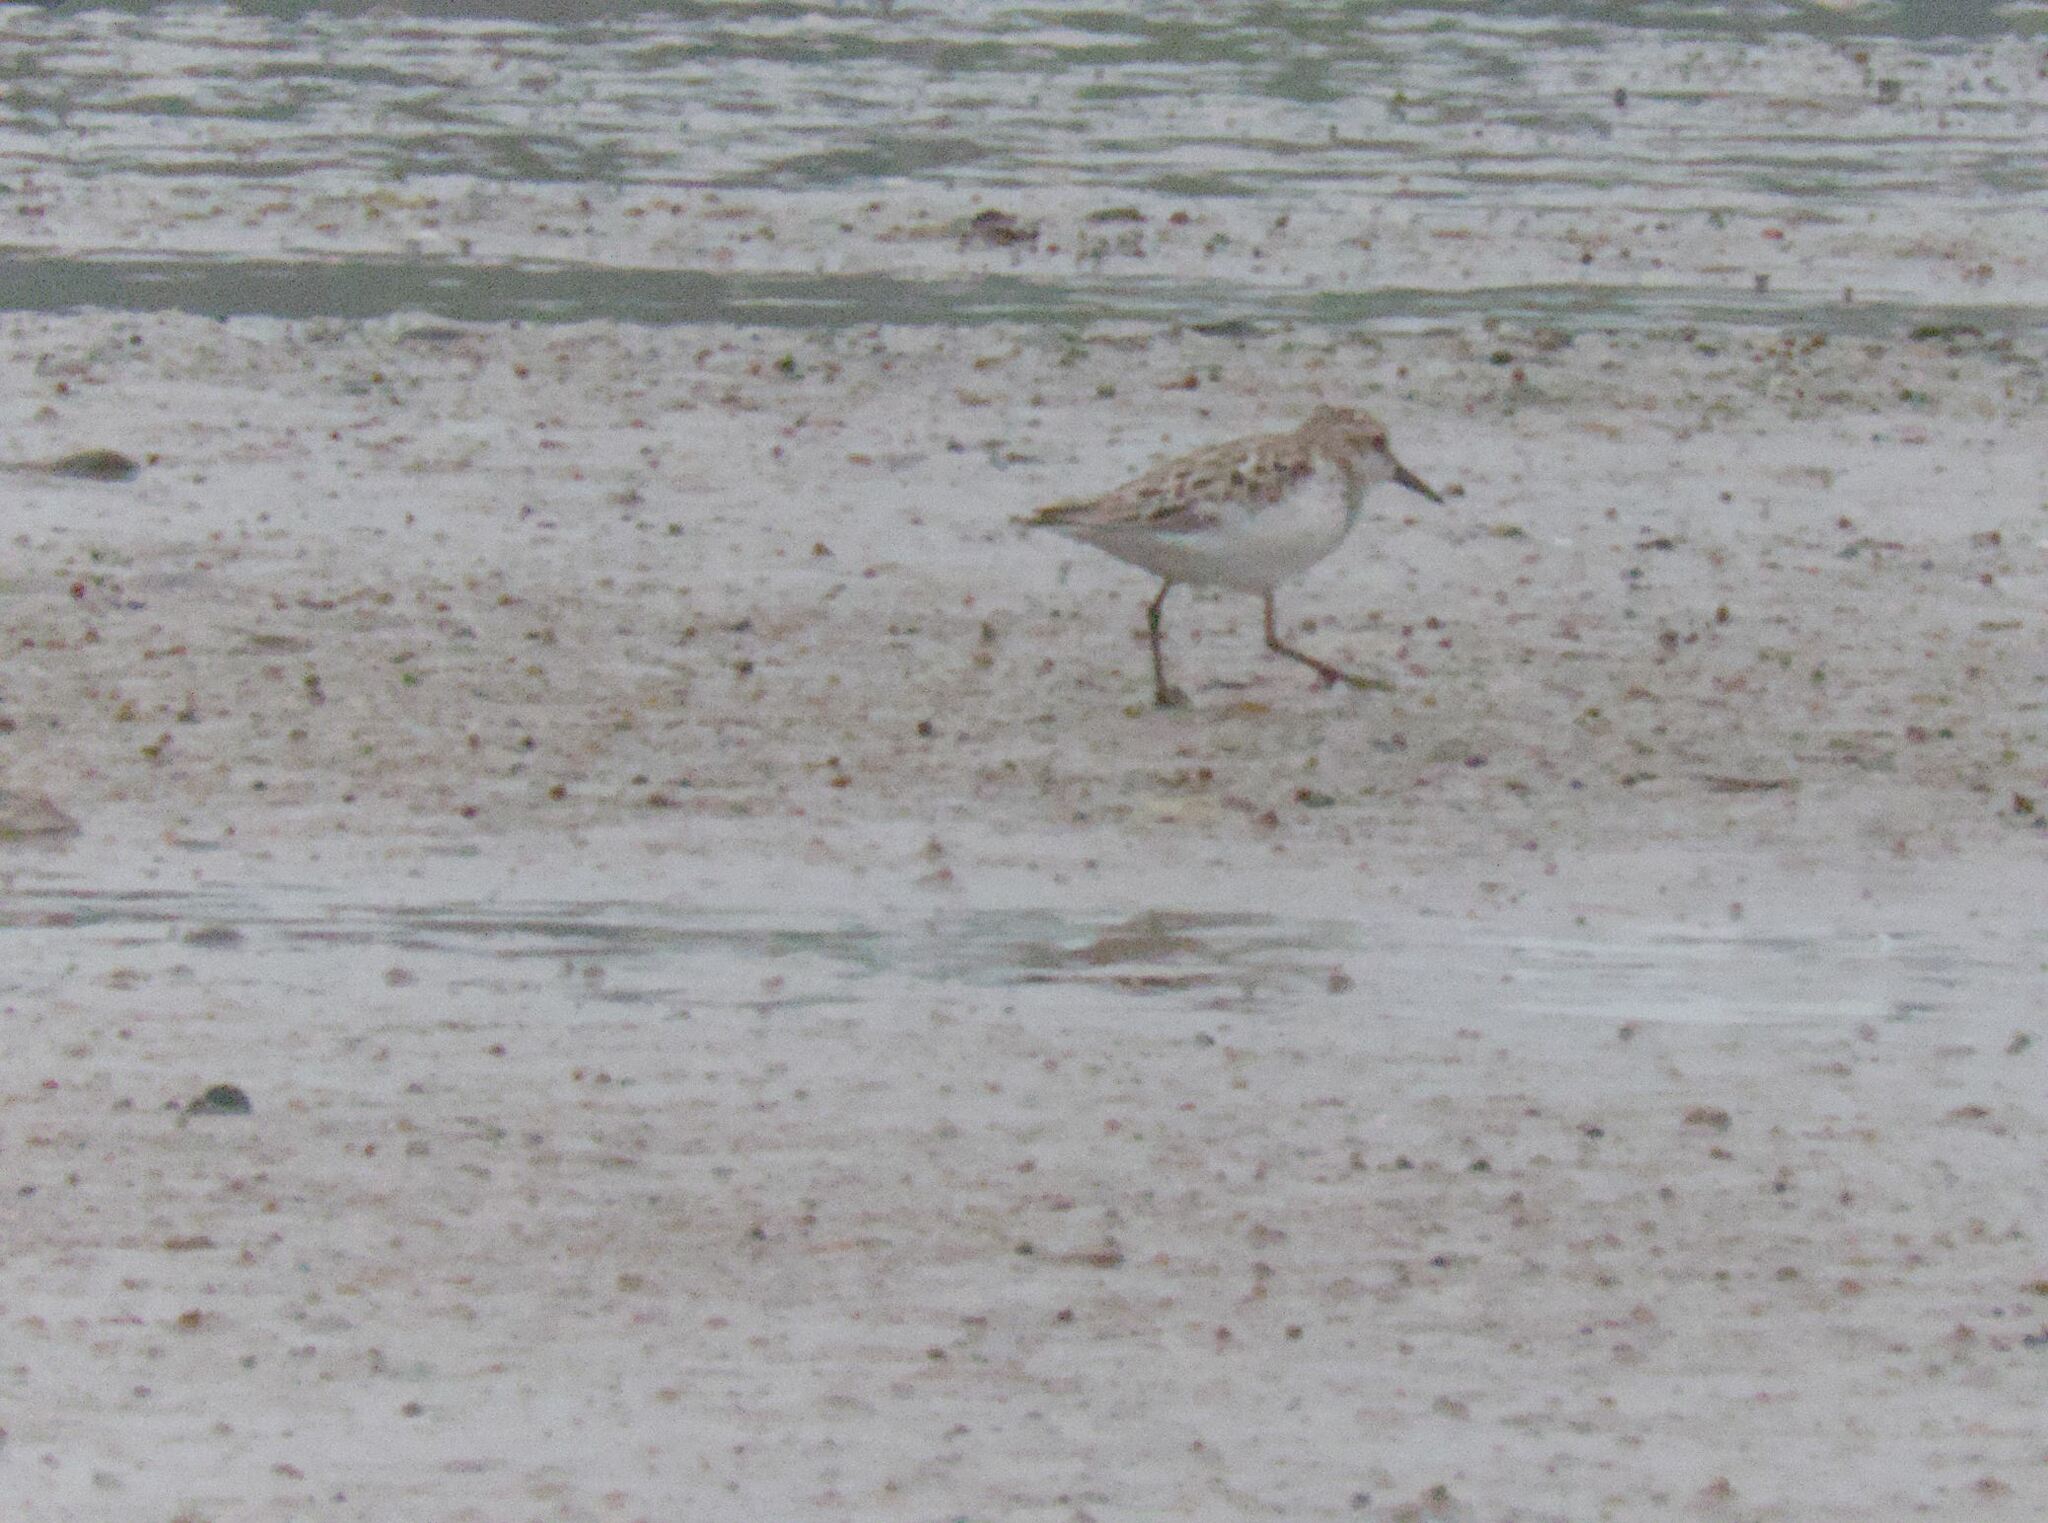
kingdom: Animalia
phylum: Chordata
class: Aves
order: Charadriiformes
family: Scolopacidae
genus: Calidris
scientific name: Calidris pusilla
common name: Semipalmated sandpiper
